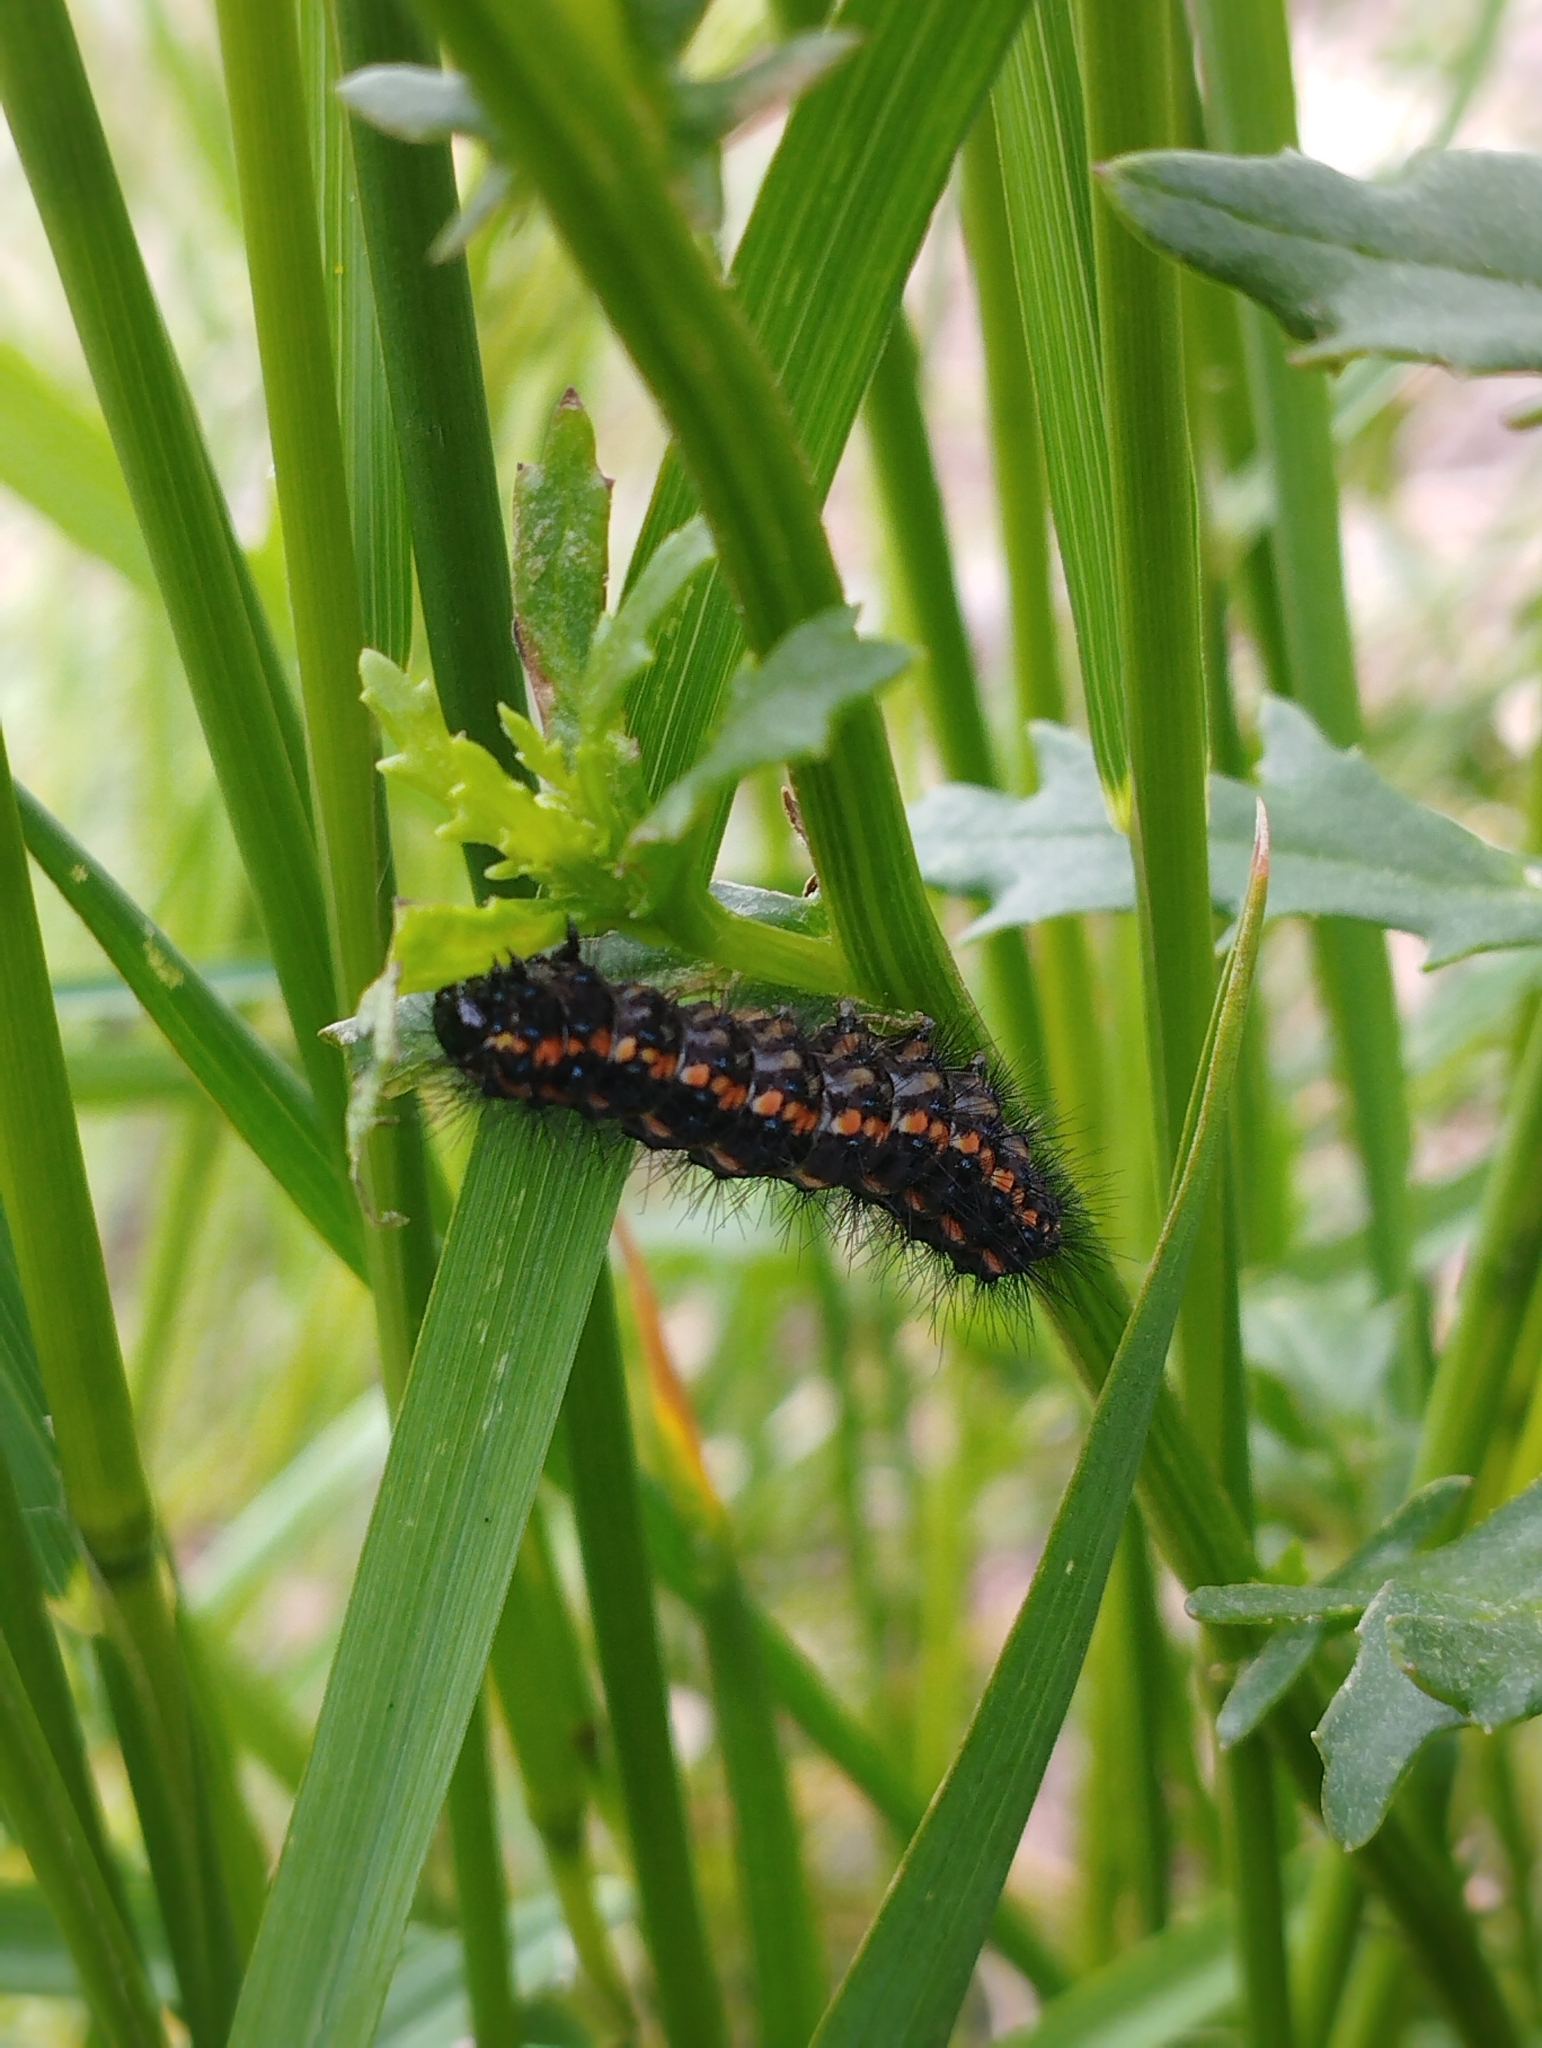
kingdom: Animalia
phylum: Arthropoda
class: Insecta
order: Lepidoptera
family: Erebidae
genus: Nyctemera
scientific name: Nyctemera annulatum
